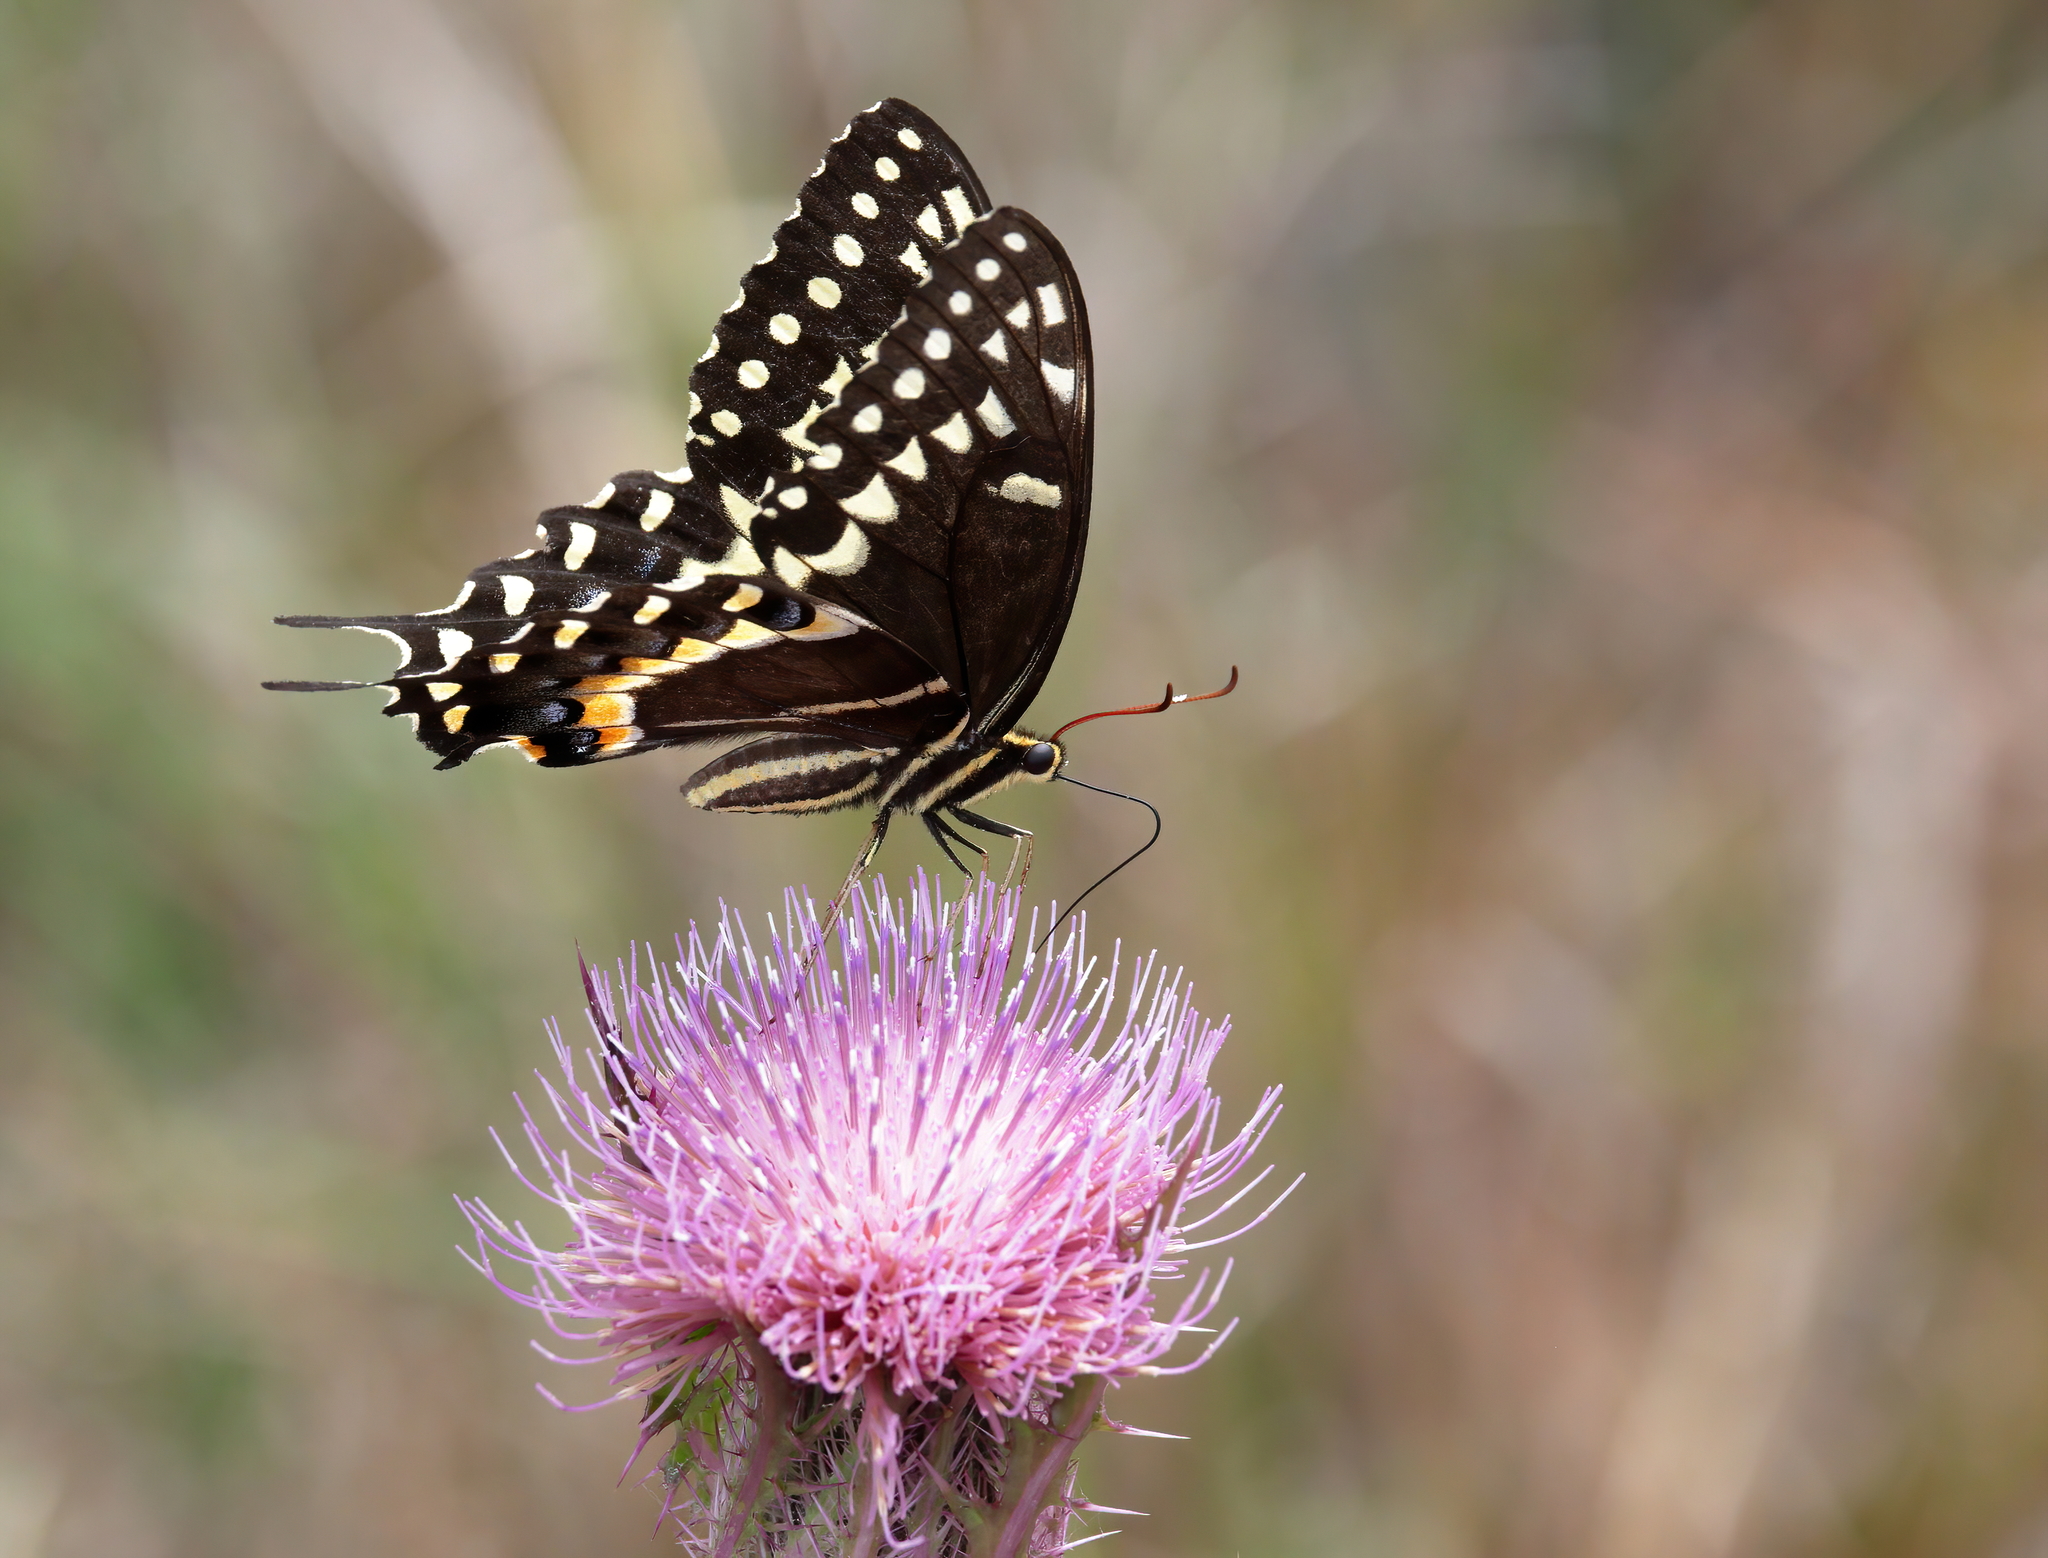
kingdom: Animalia
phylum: Arthropoda
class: Insecta
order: Lepidoptera
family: Papilionidae
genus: Papilio
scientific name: Papilio palamedes
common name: Palamedes swallowtail
